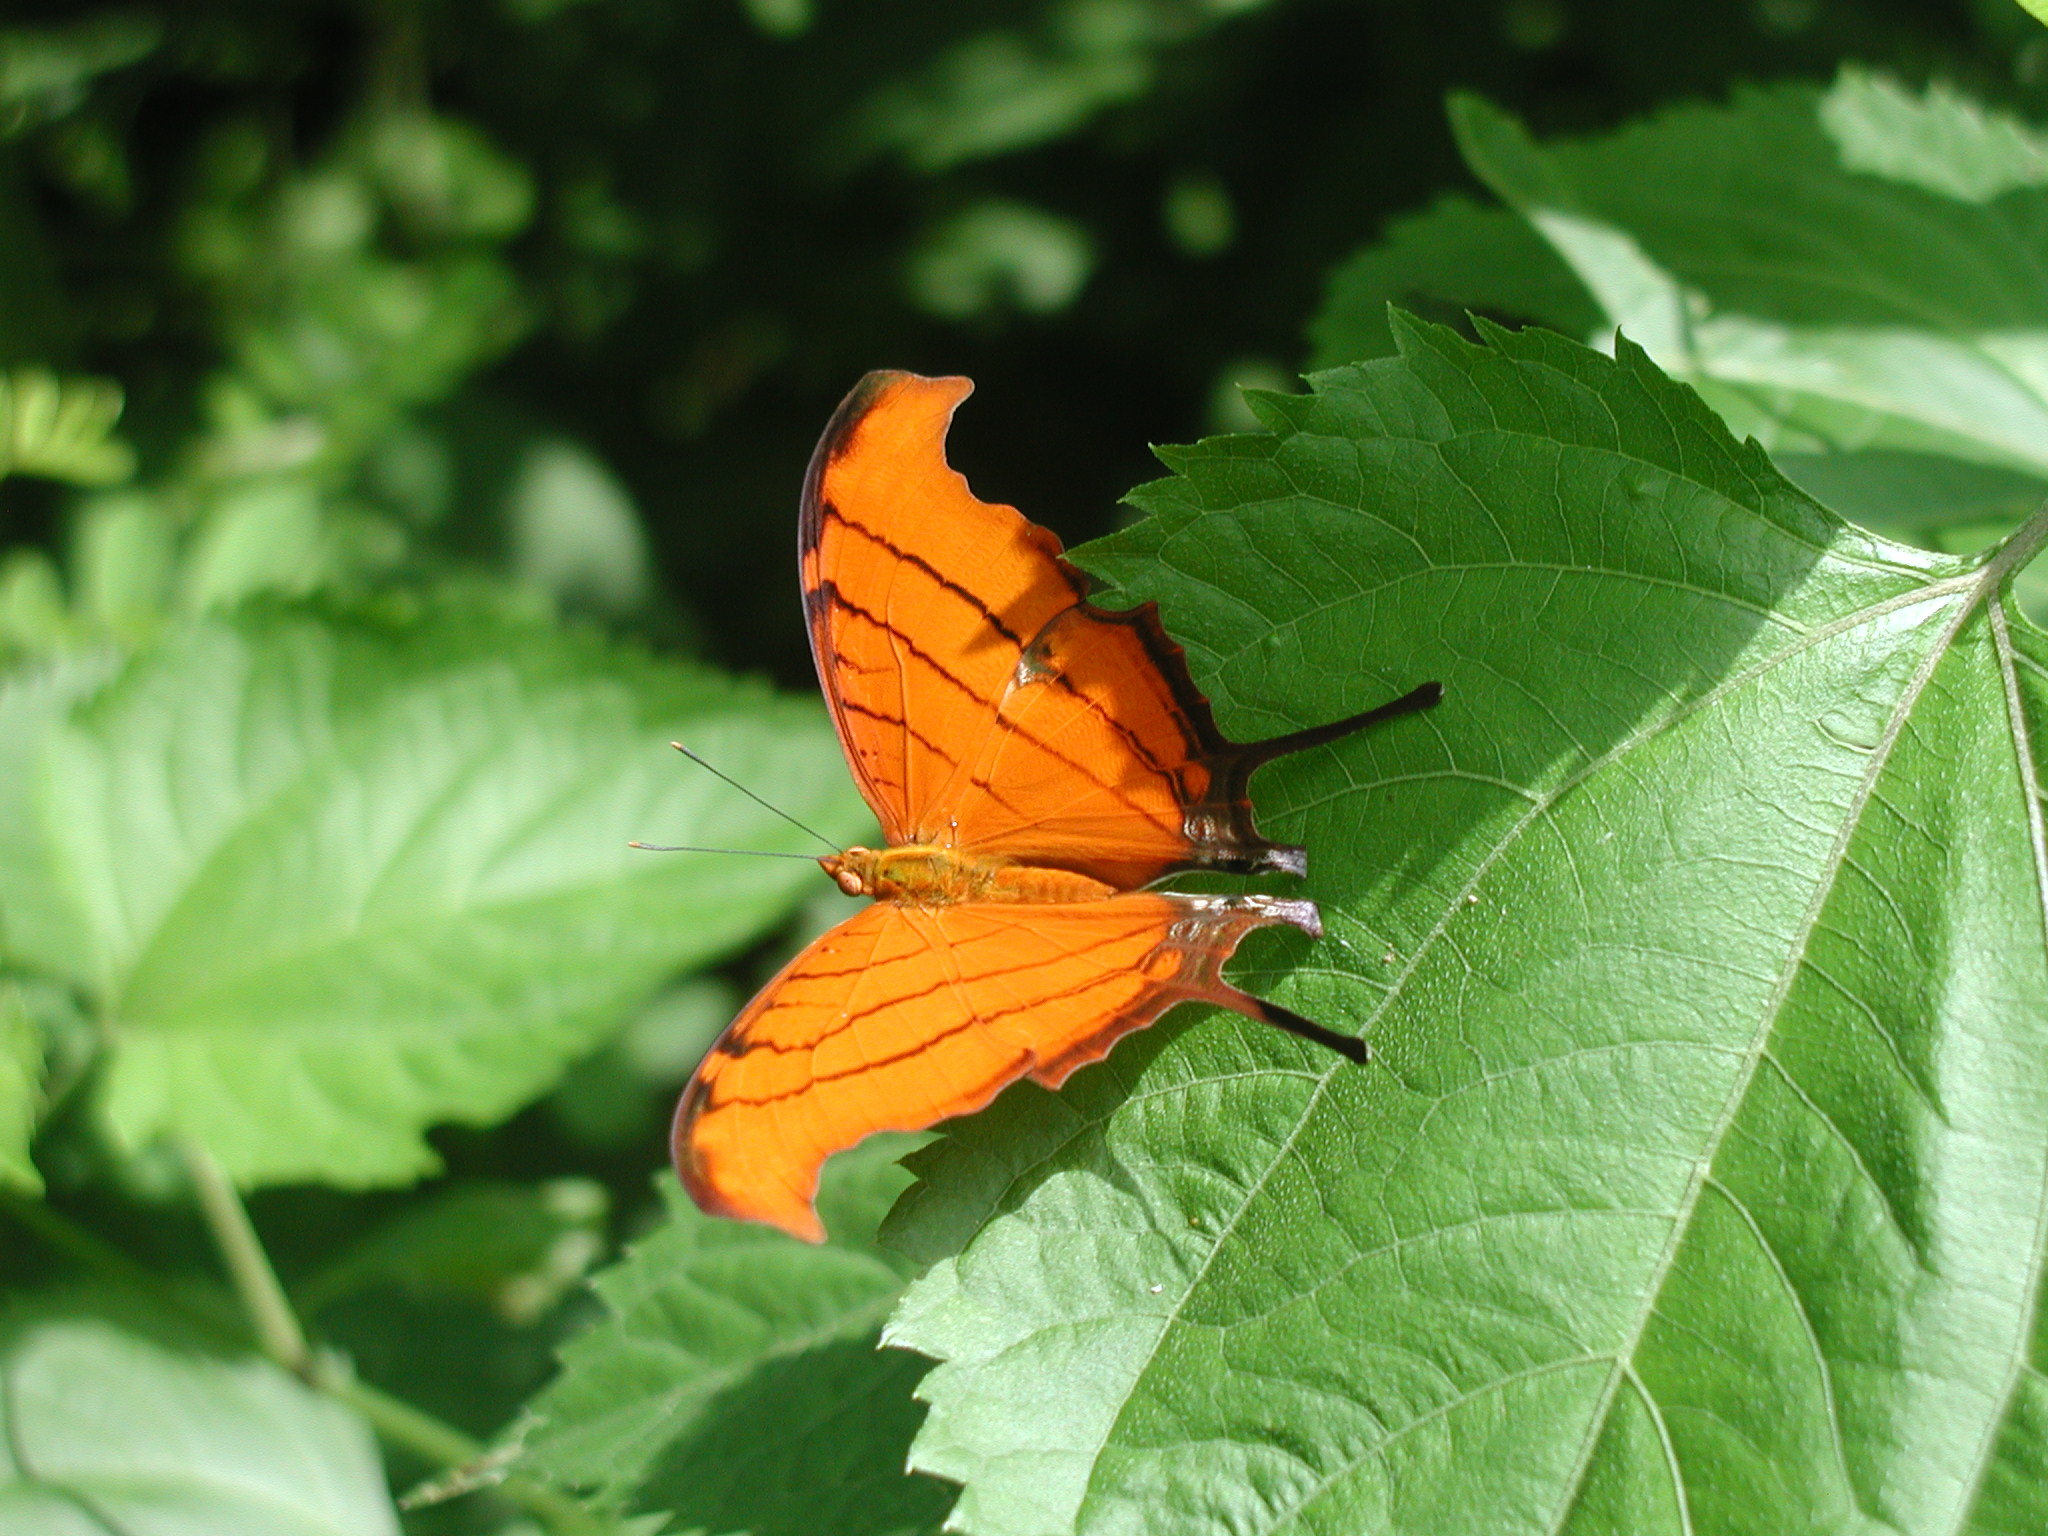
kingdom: Animalia
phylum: Arthropoda
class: Insecta
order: Lepidoptera
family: Nymphalidae
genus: Marpesia
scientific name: Marpesia petreus
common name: Red dagger wing
